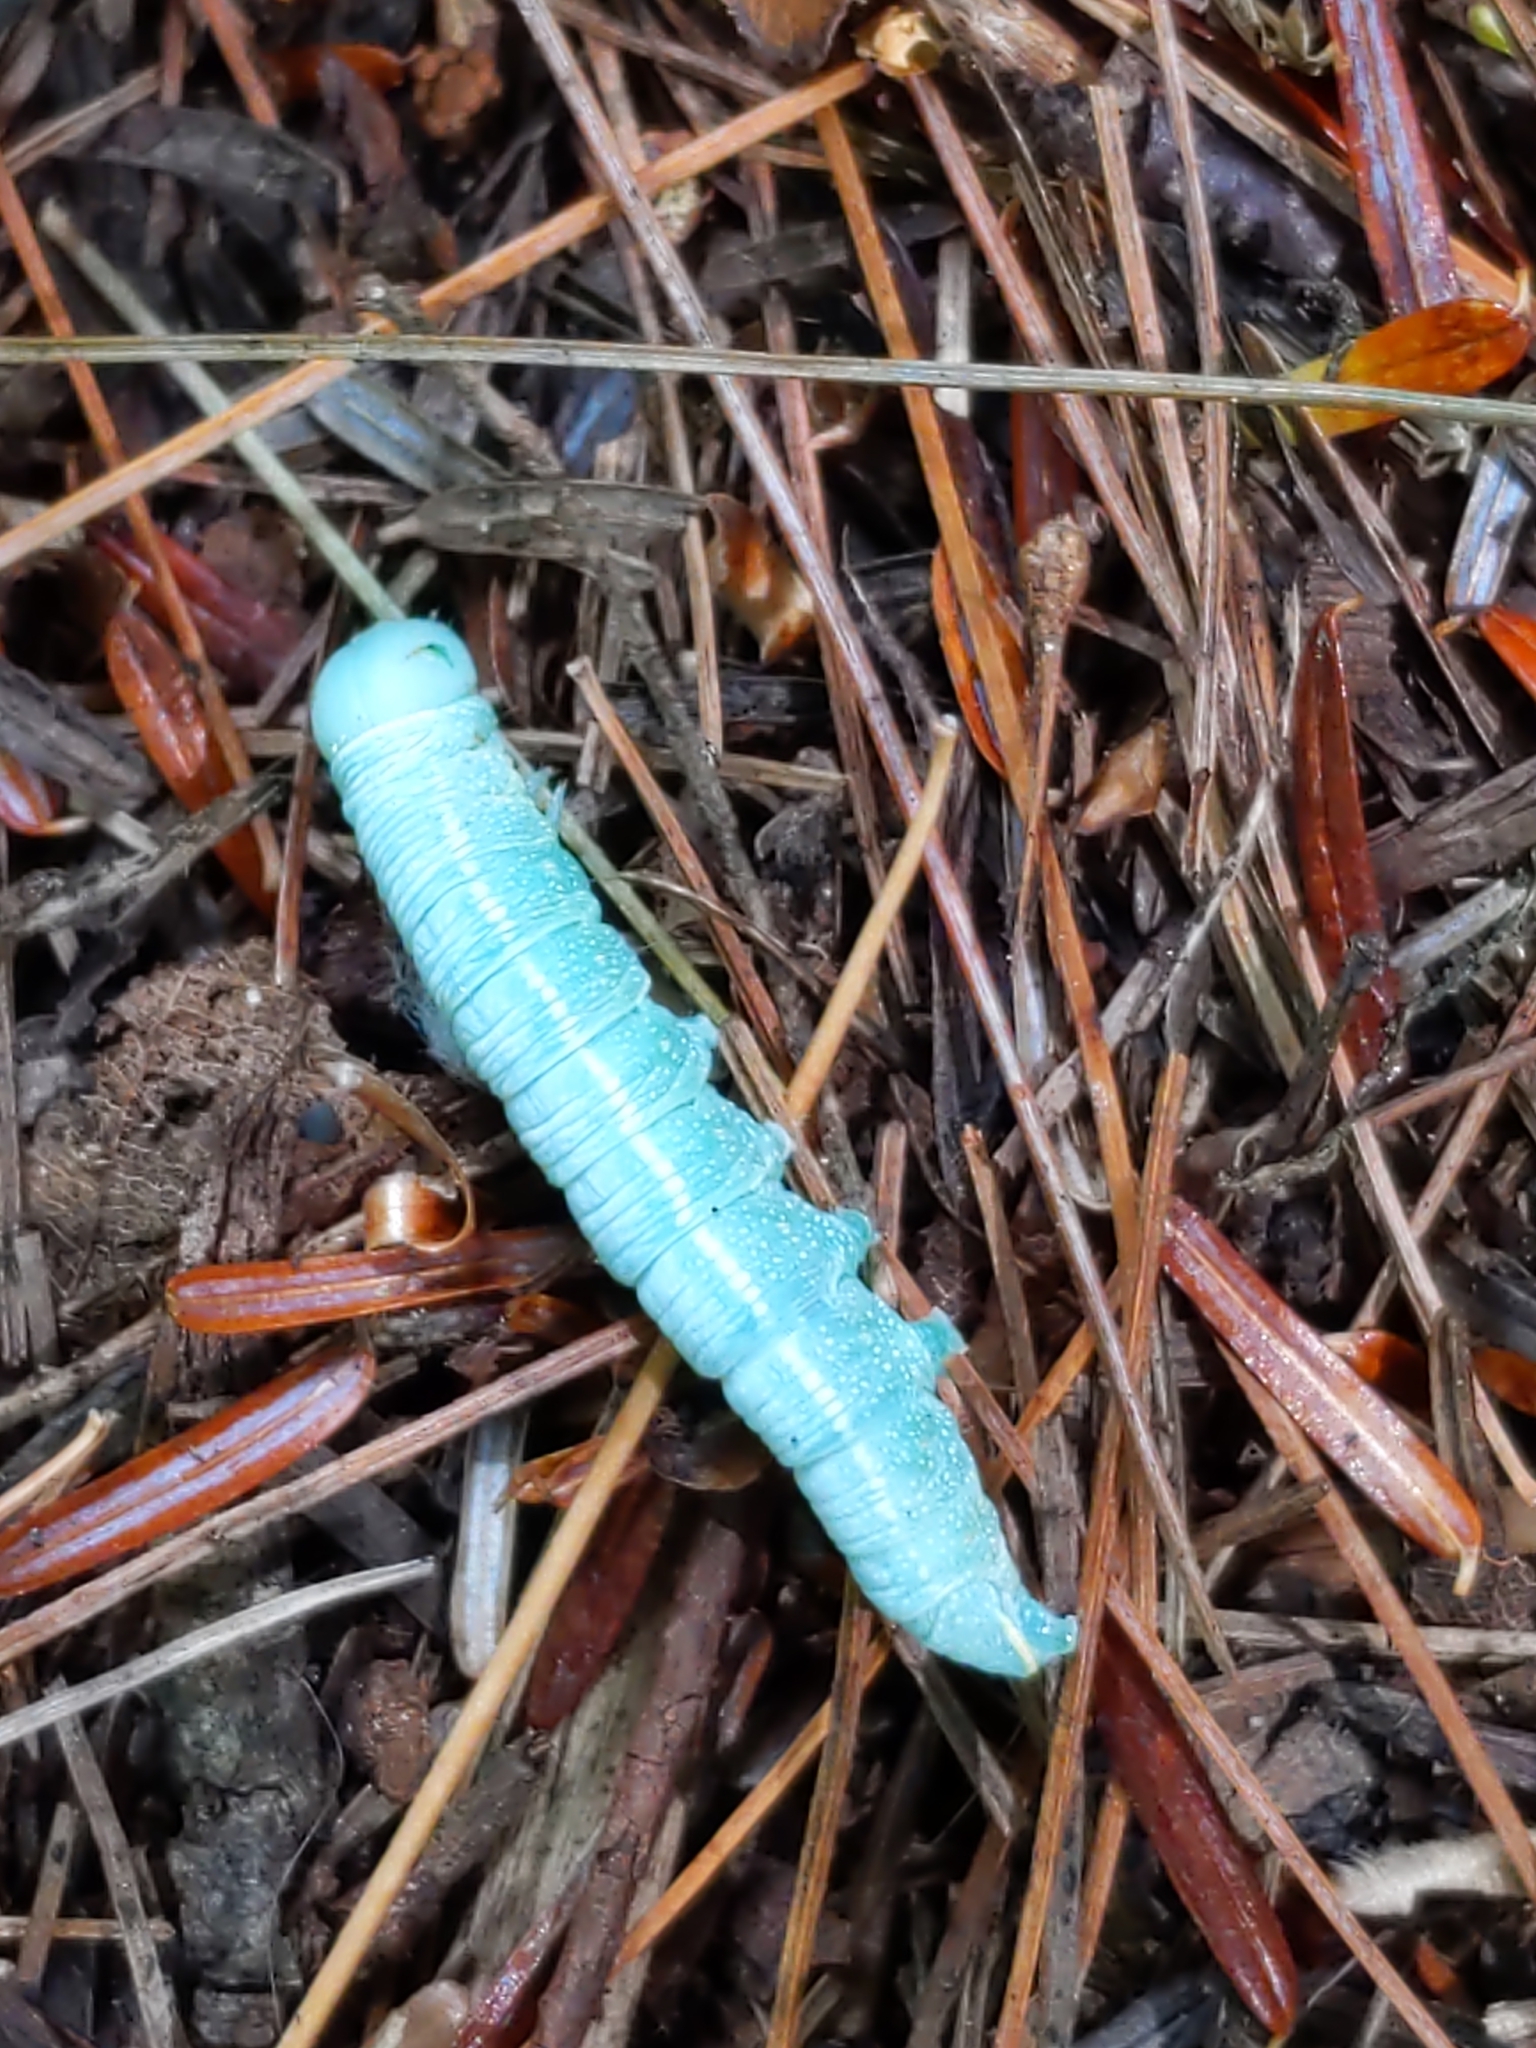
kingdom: Animalia
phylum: Arthropoda
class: Insecta
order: Lepidoptera
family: Notodontidae
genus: Nadata
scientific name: Nadata gibbosa
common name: White-dotted prominent
